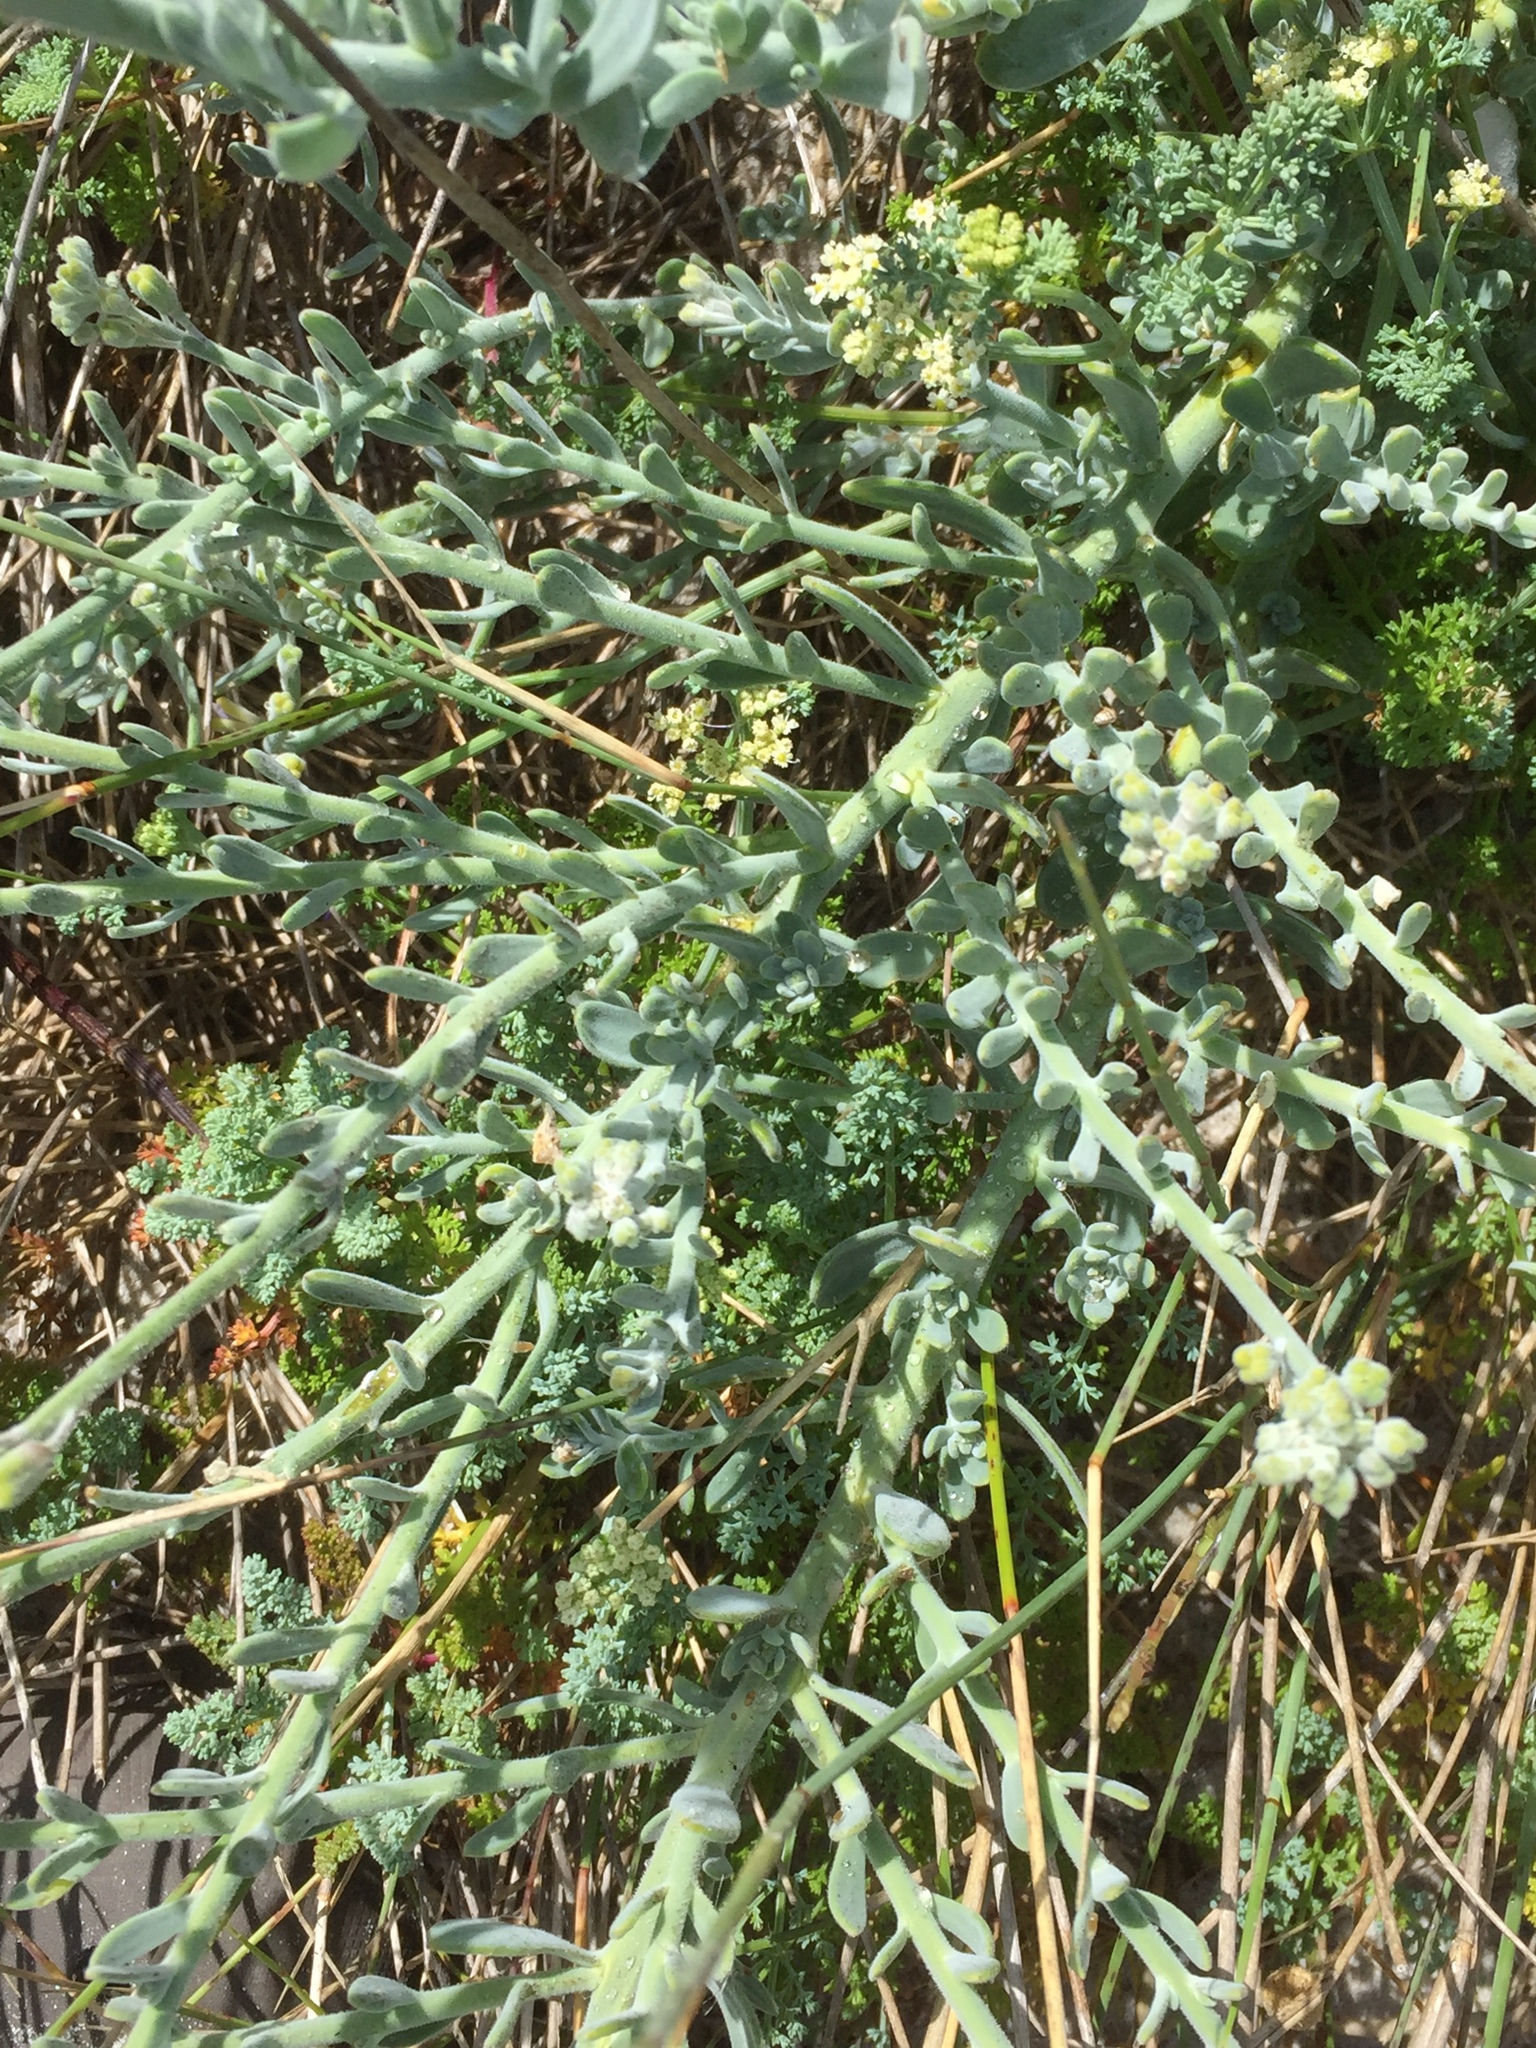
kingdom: Plantae
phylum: Tracheophyta
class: Magnoliopsida
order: Brassicales
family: Brassicaceae
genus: Heliophila
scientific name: Heliophila cinerea
